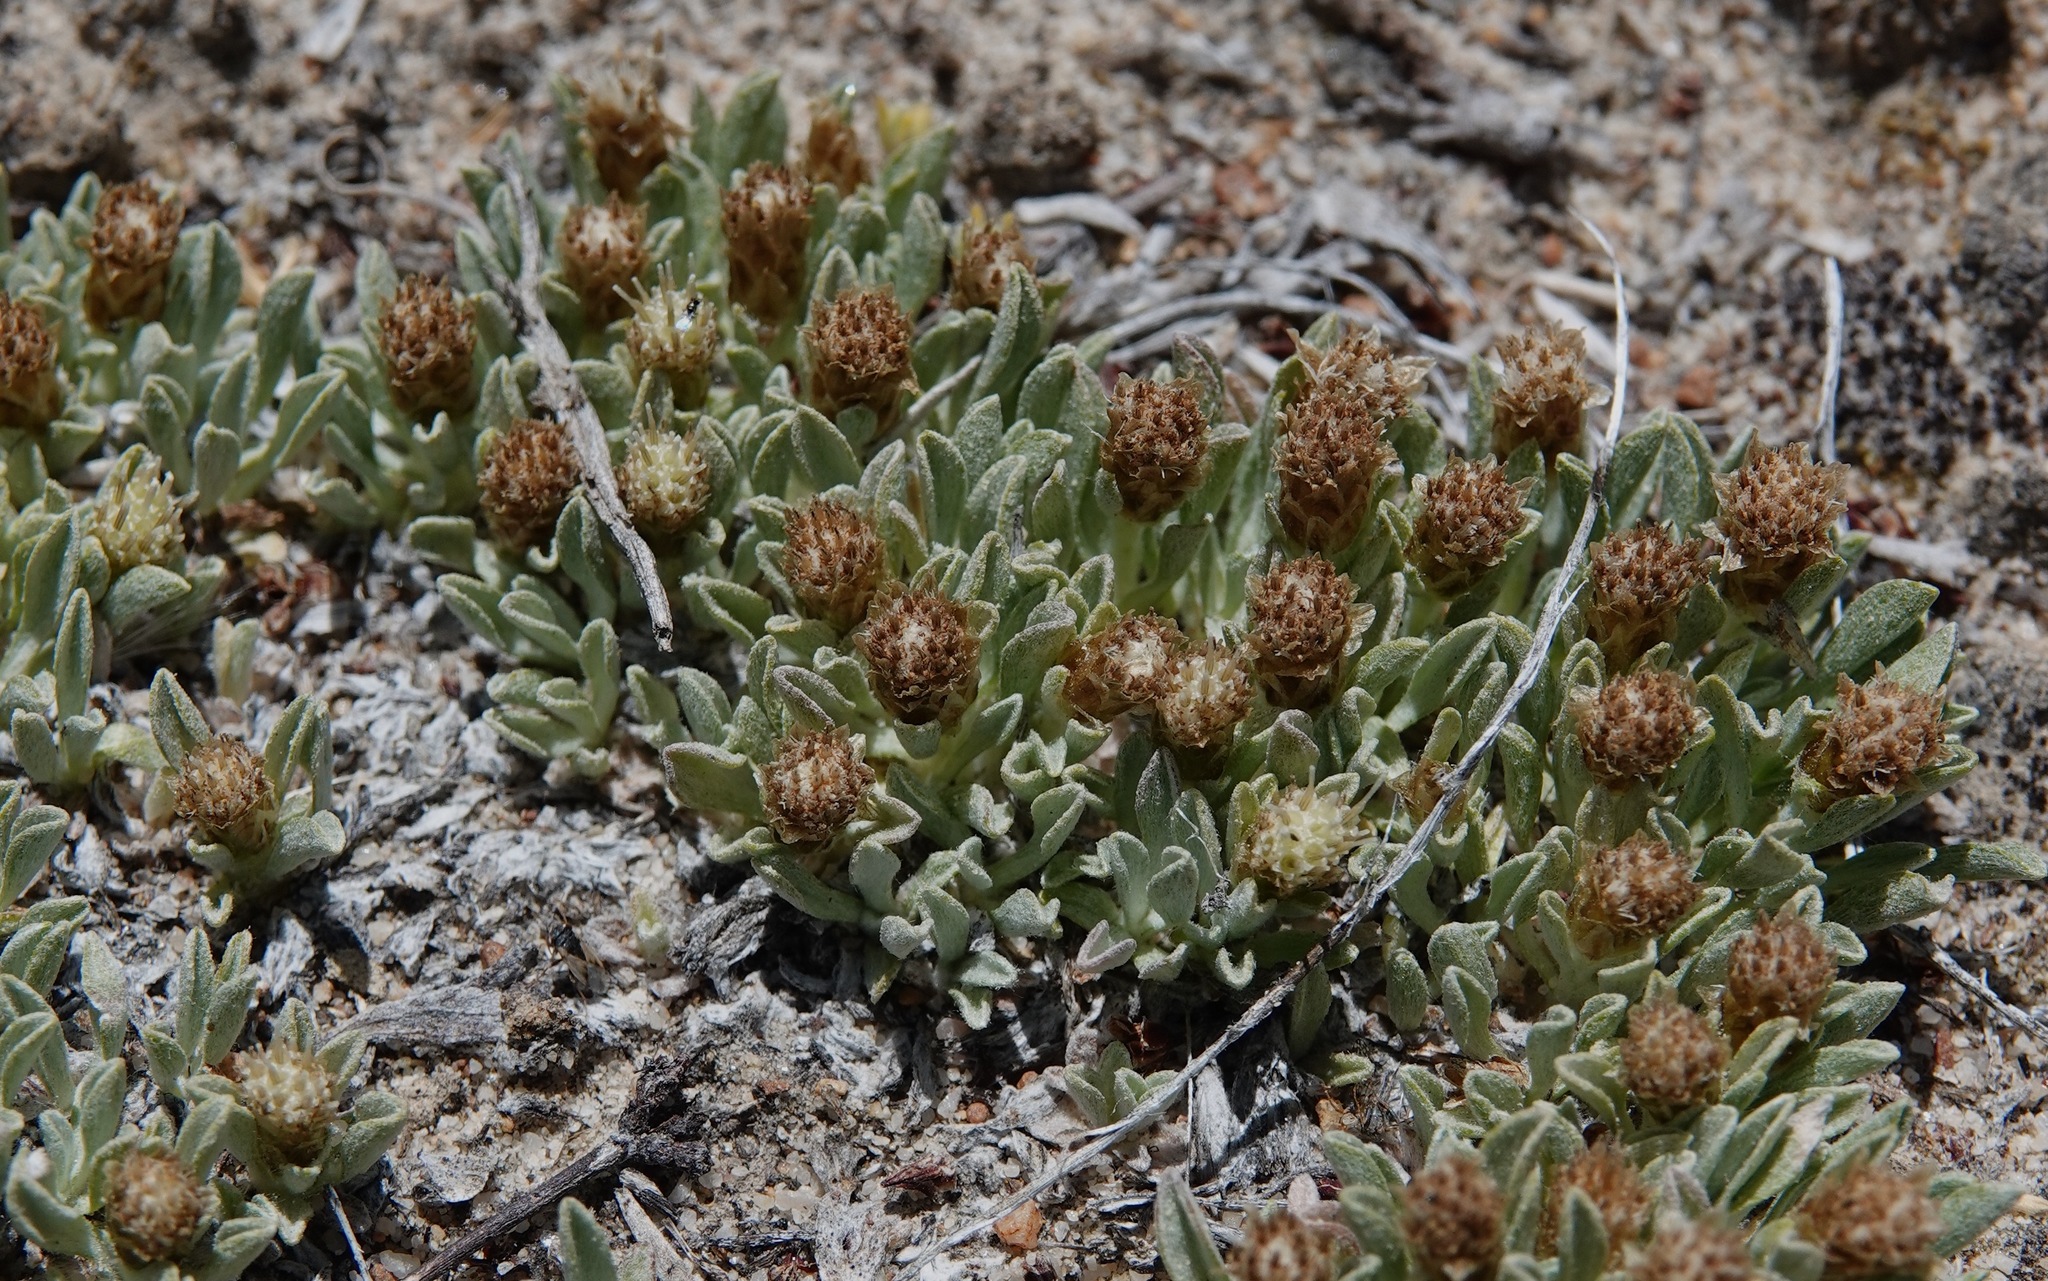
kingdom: Plantae
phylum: Tracheophyta
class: Magnoliopsida
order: Asterales
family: Asteraceae
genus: Antennaria
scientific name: Antennaria dimorpha
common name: Cushion pussytoes
